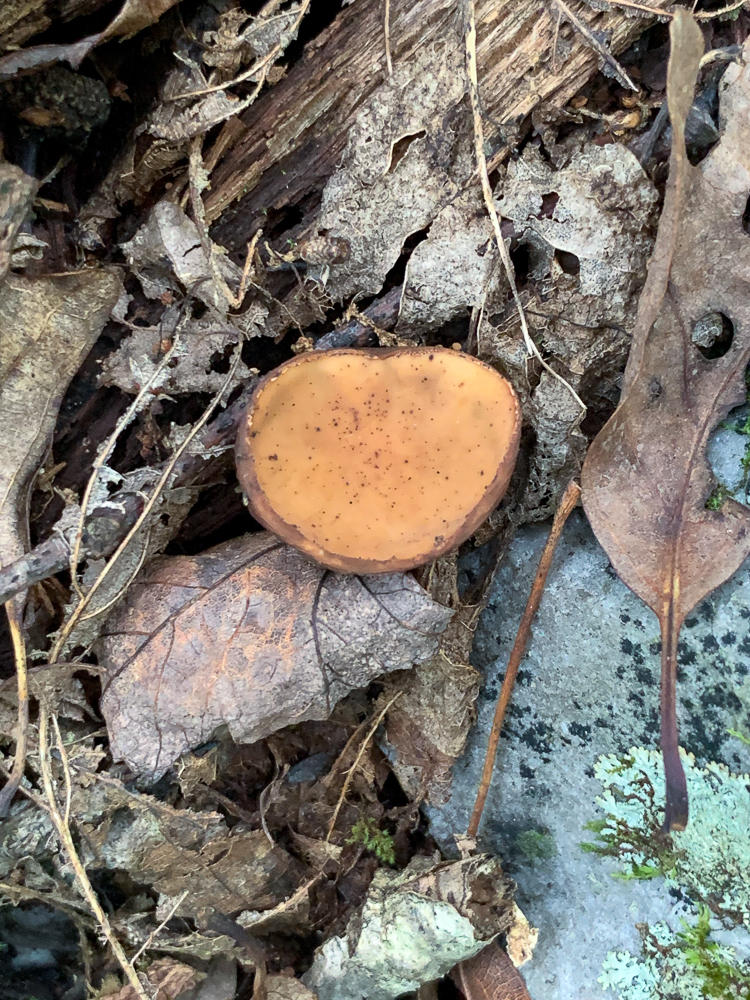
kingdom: Fungi
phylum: Ascomycota
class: Pezizomycetes
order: Pezizales
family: Sarcosomataceae
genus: Galiella
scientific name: Galiella rufa
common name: Hairy rubber cup
